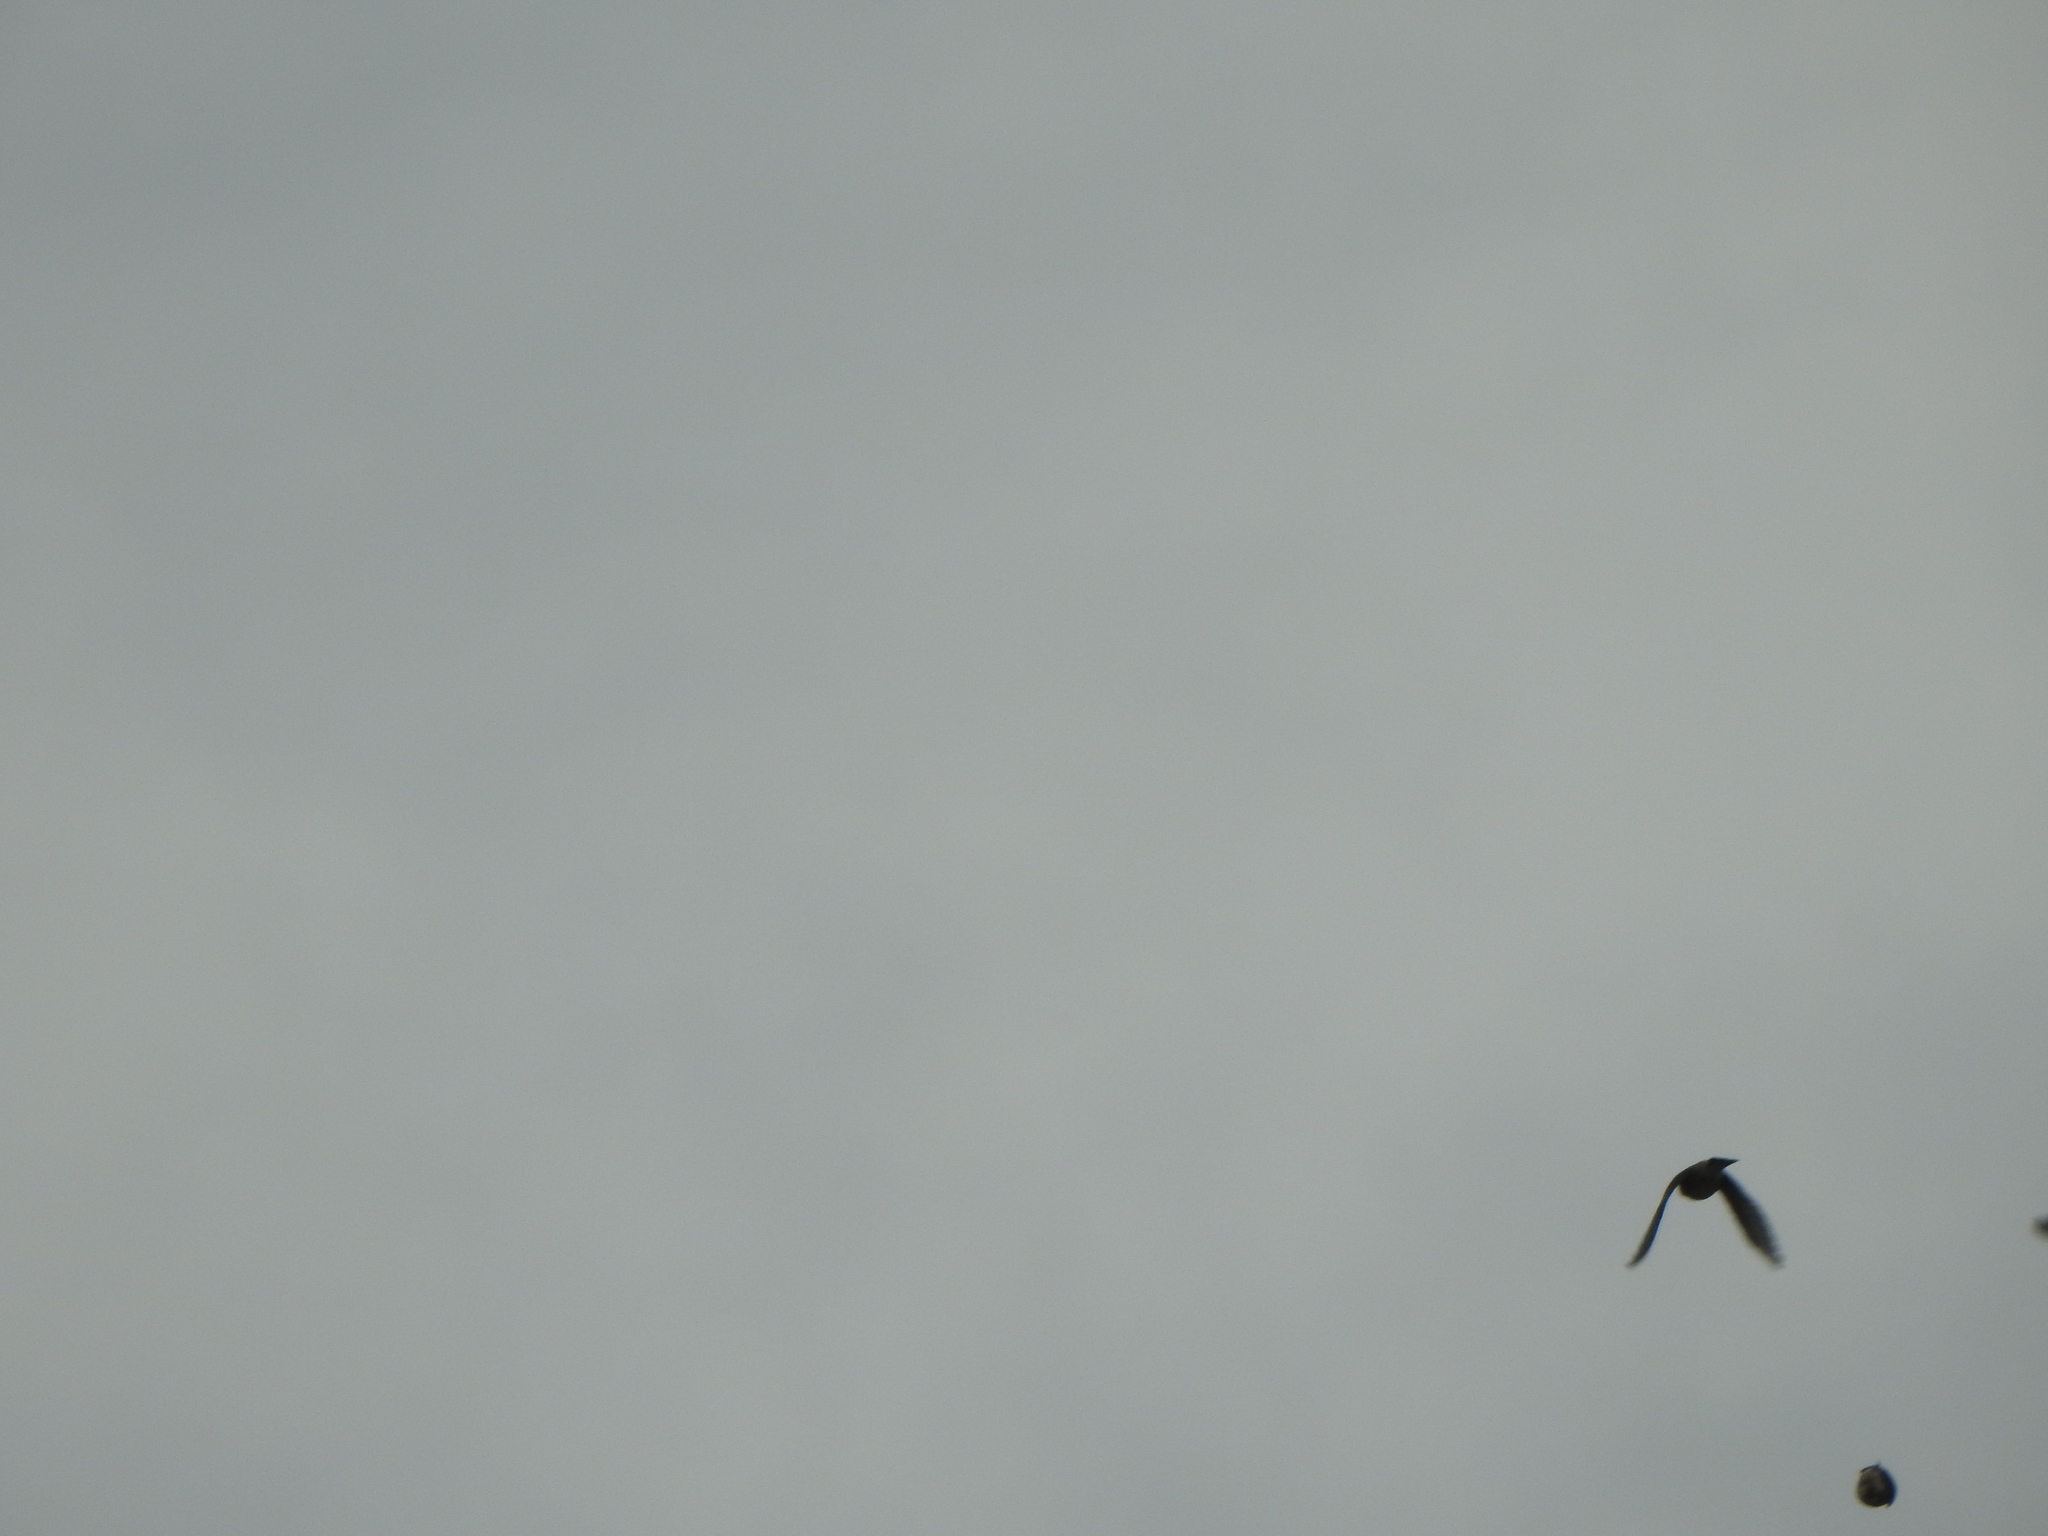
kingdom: Animalia
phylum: Chordata
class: Aves
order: Passeriformes
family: Bombycillidae
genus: Bombycilla
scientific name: Bombycilla cedrorum
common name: Cedar waxwing
